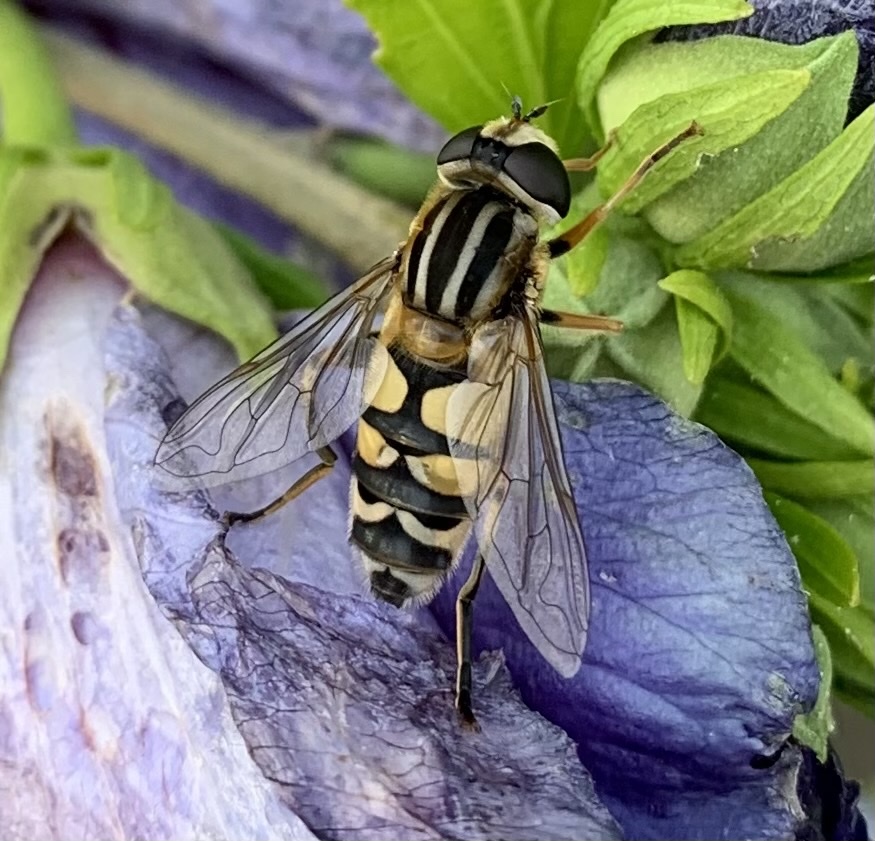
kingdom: Animalia
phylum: Arthropoda
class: Insecta
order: Diptera
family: Syrphidae
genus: Helophilus
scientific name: Helophilus trivittatus
